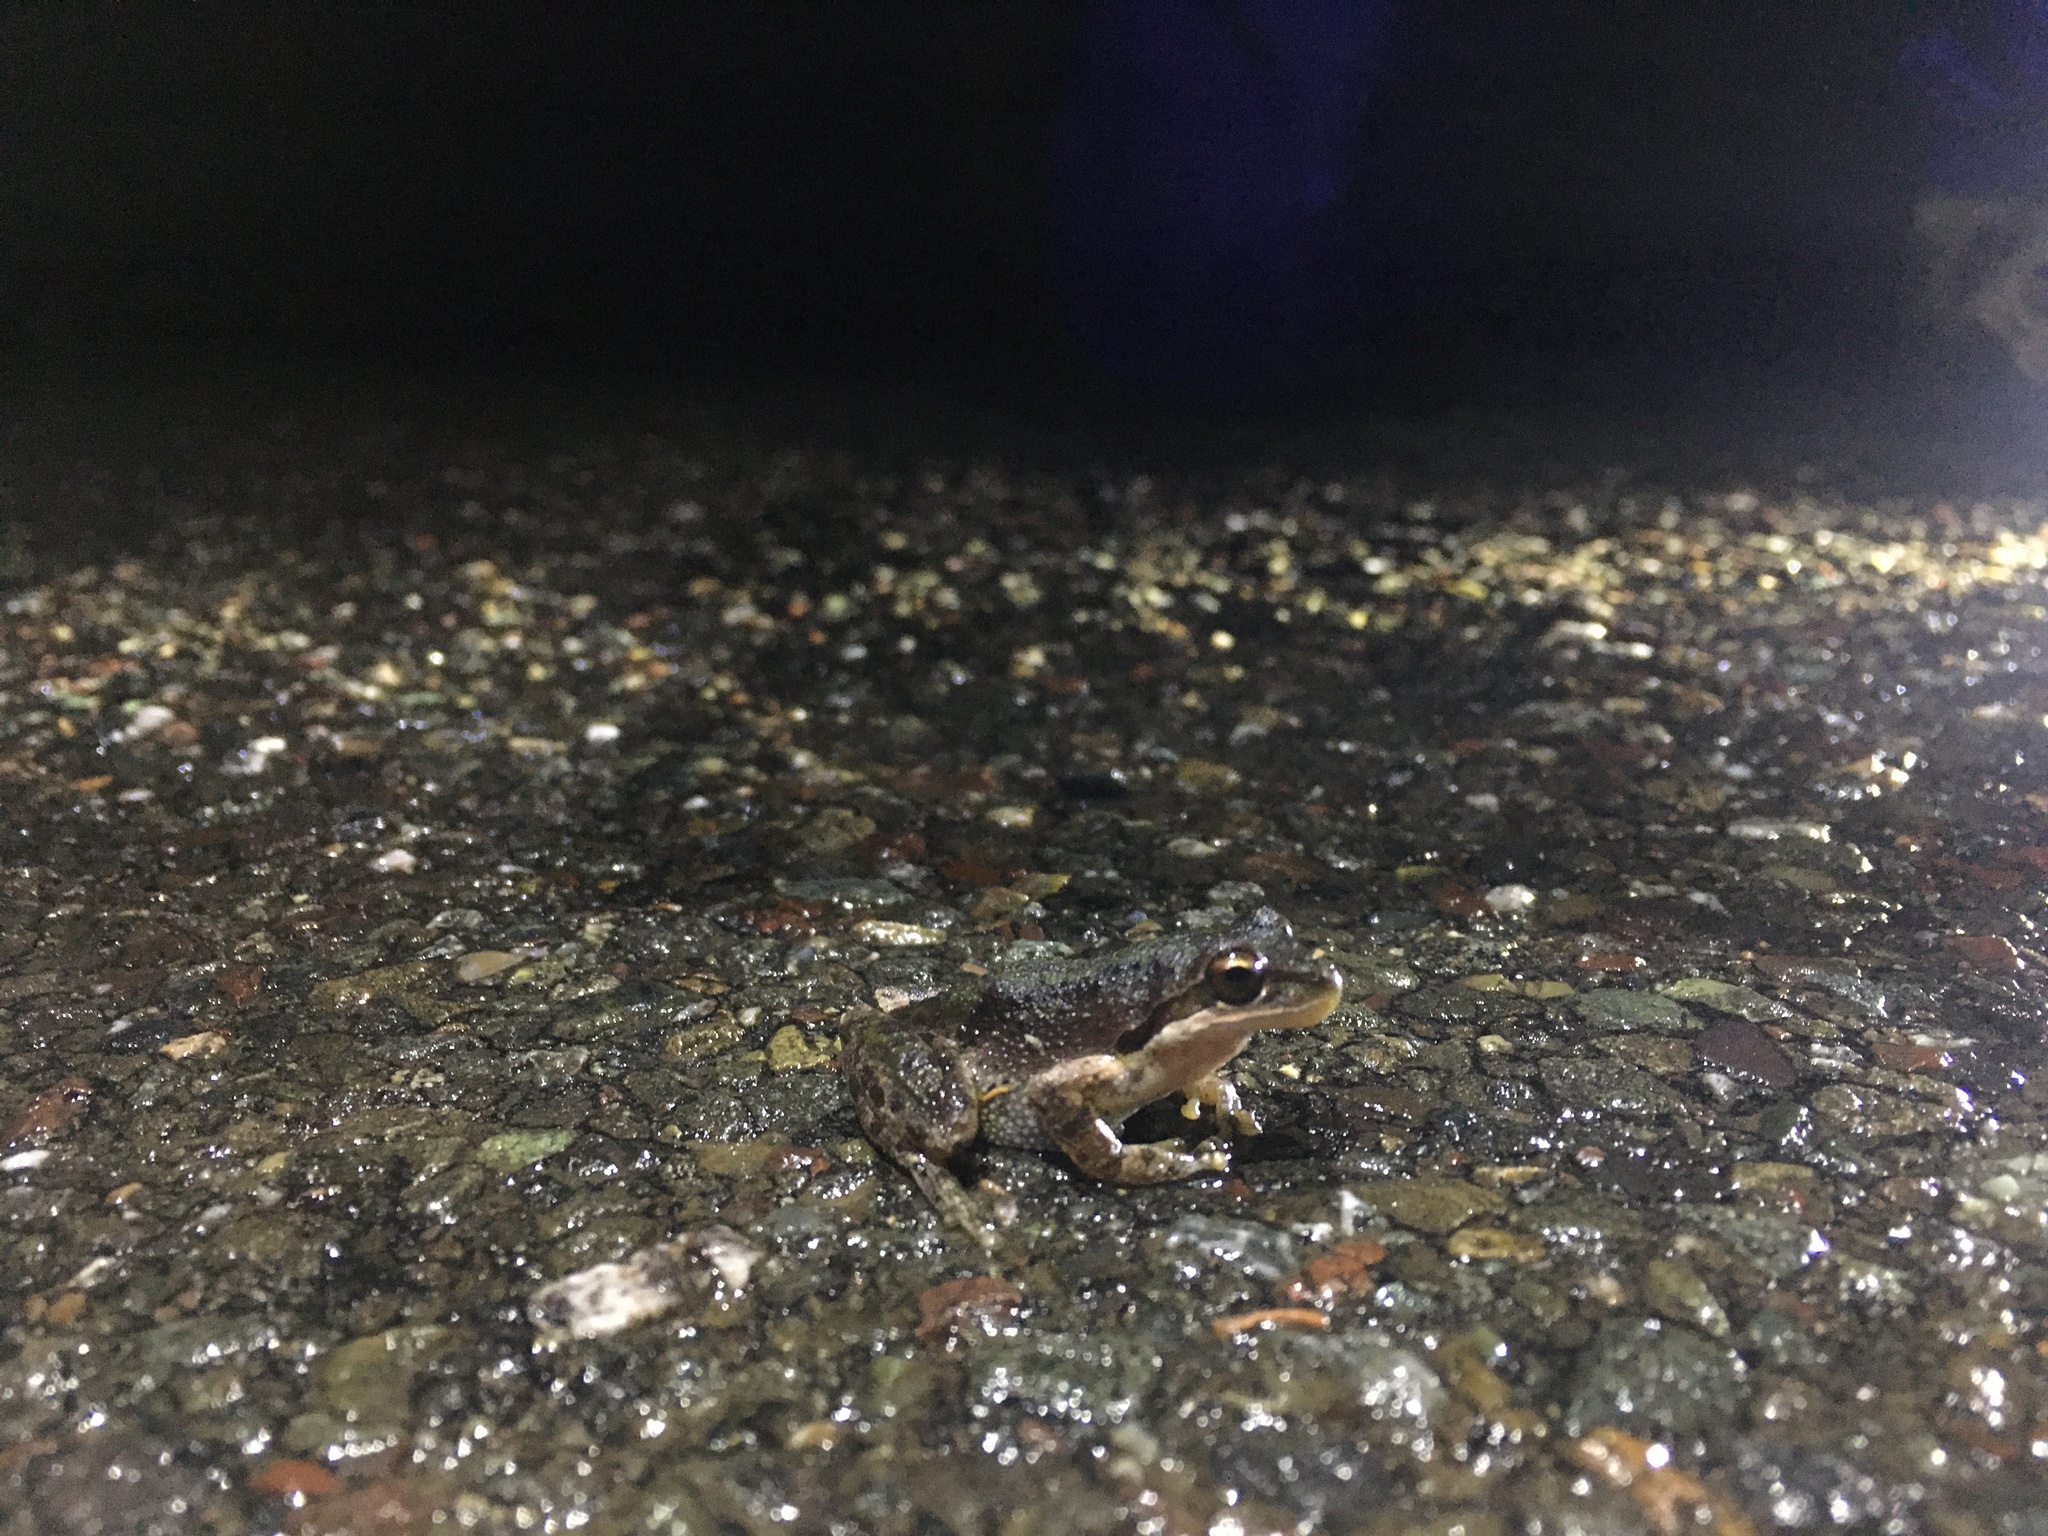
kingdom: Animalia
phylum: Chordata
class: Amphibia
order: Anura
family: Hylidae
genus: Pseudacris
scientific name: Pseudacris regilla
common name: Pacific chorus frog
